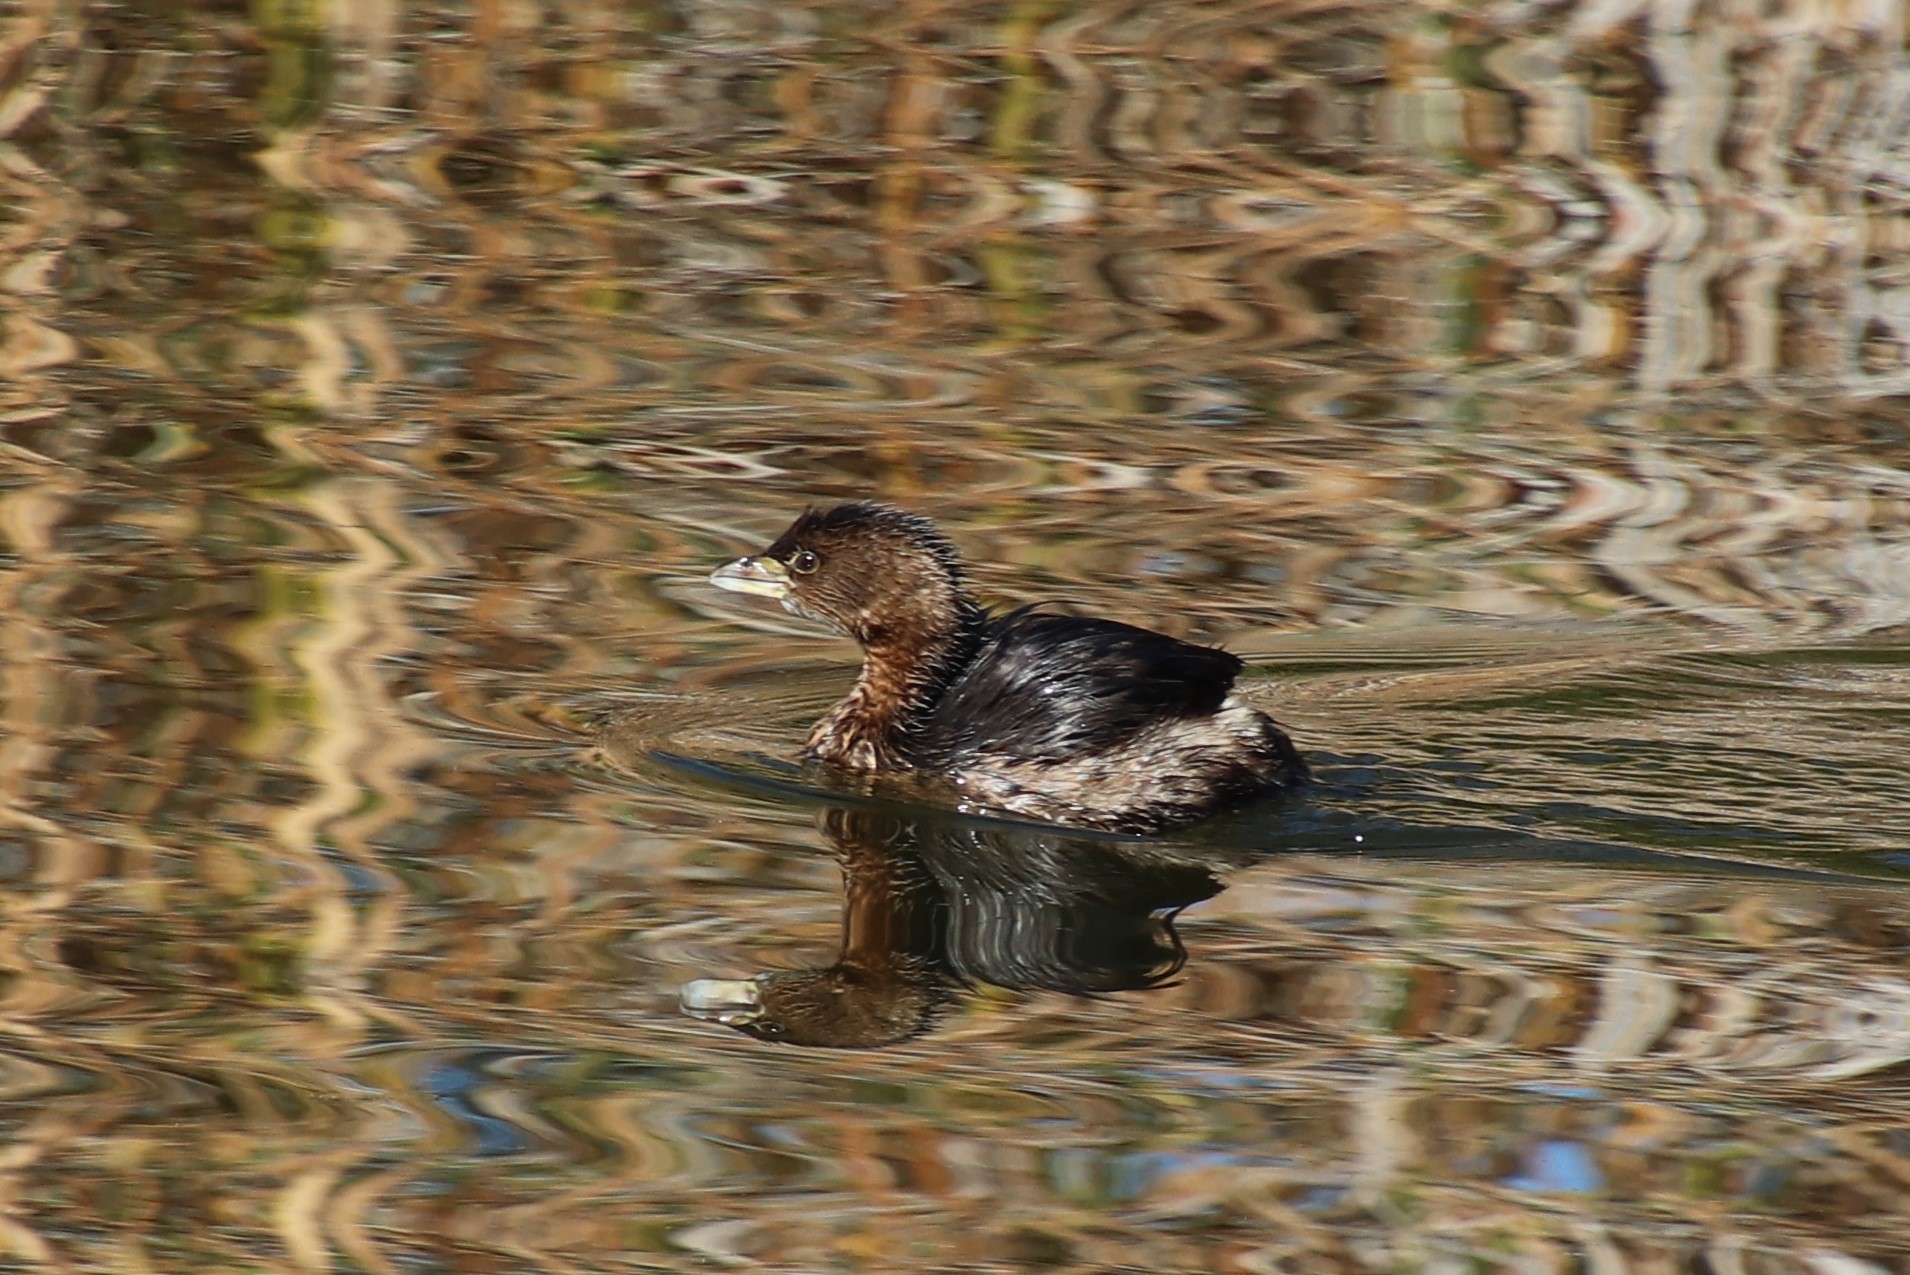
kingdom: Animalia
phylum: Chordata
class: Aves
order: Podicipediformes
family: Podicipedidae
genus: Podilymbus
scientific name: Podilymbus podiceps
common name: Pied-billed grebe
